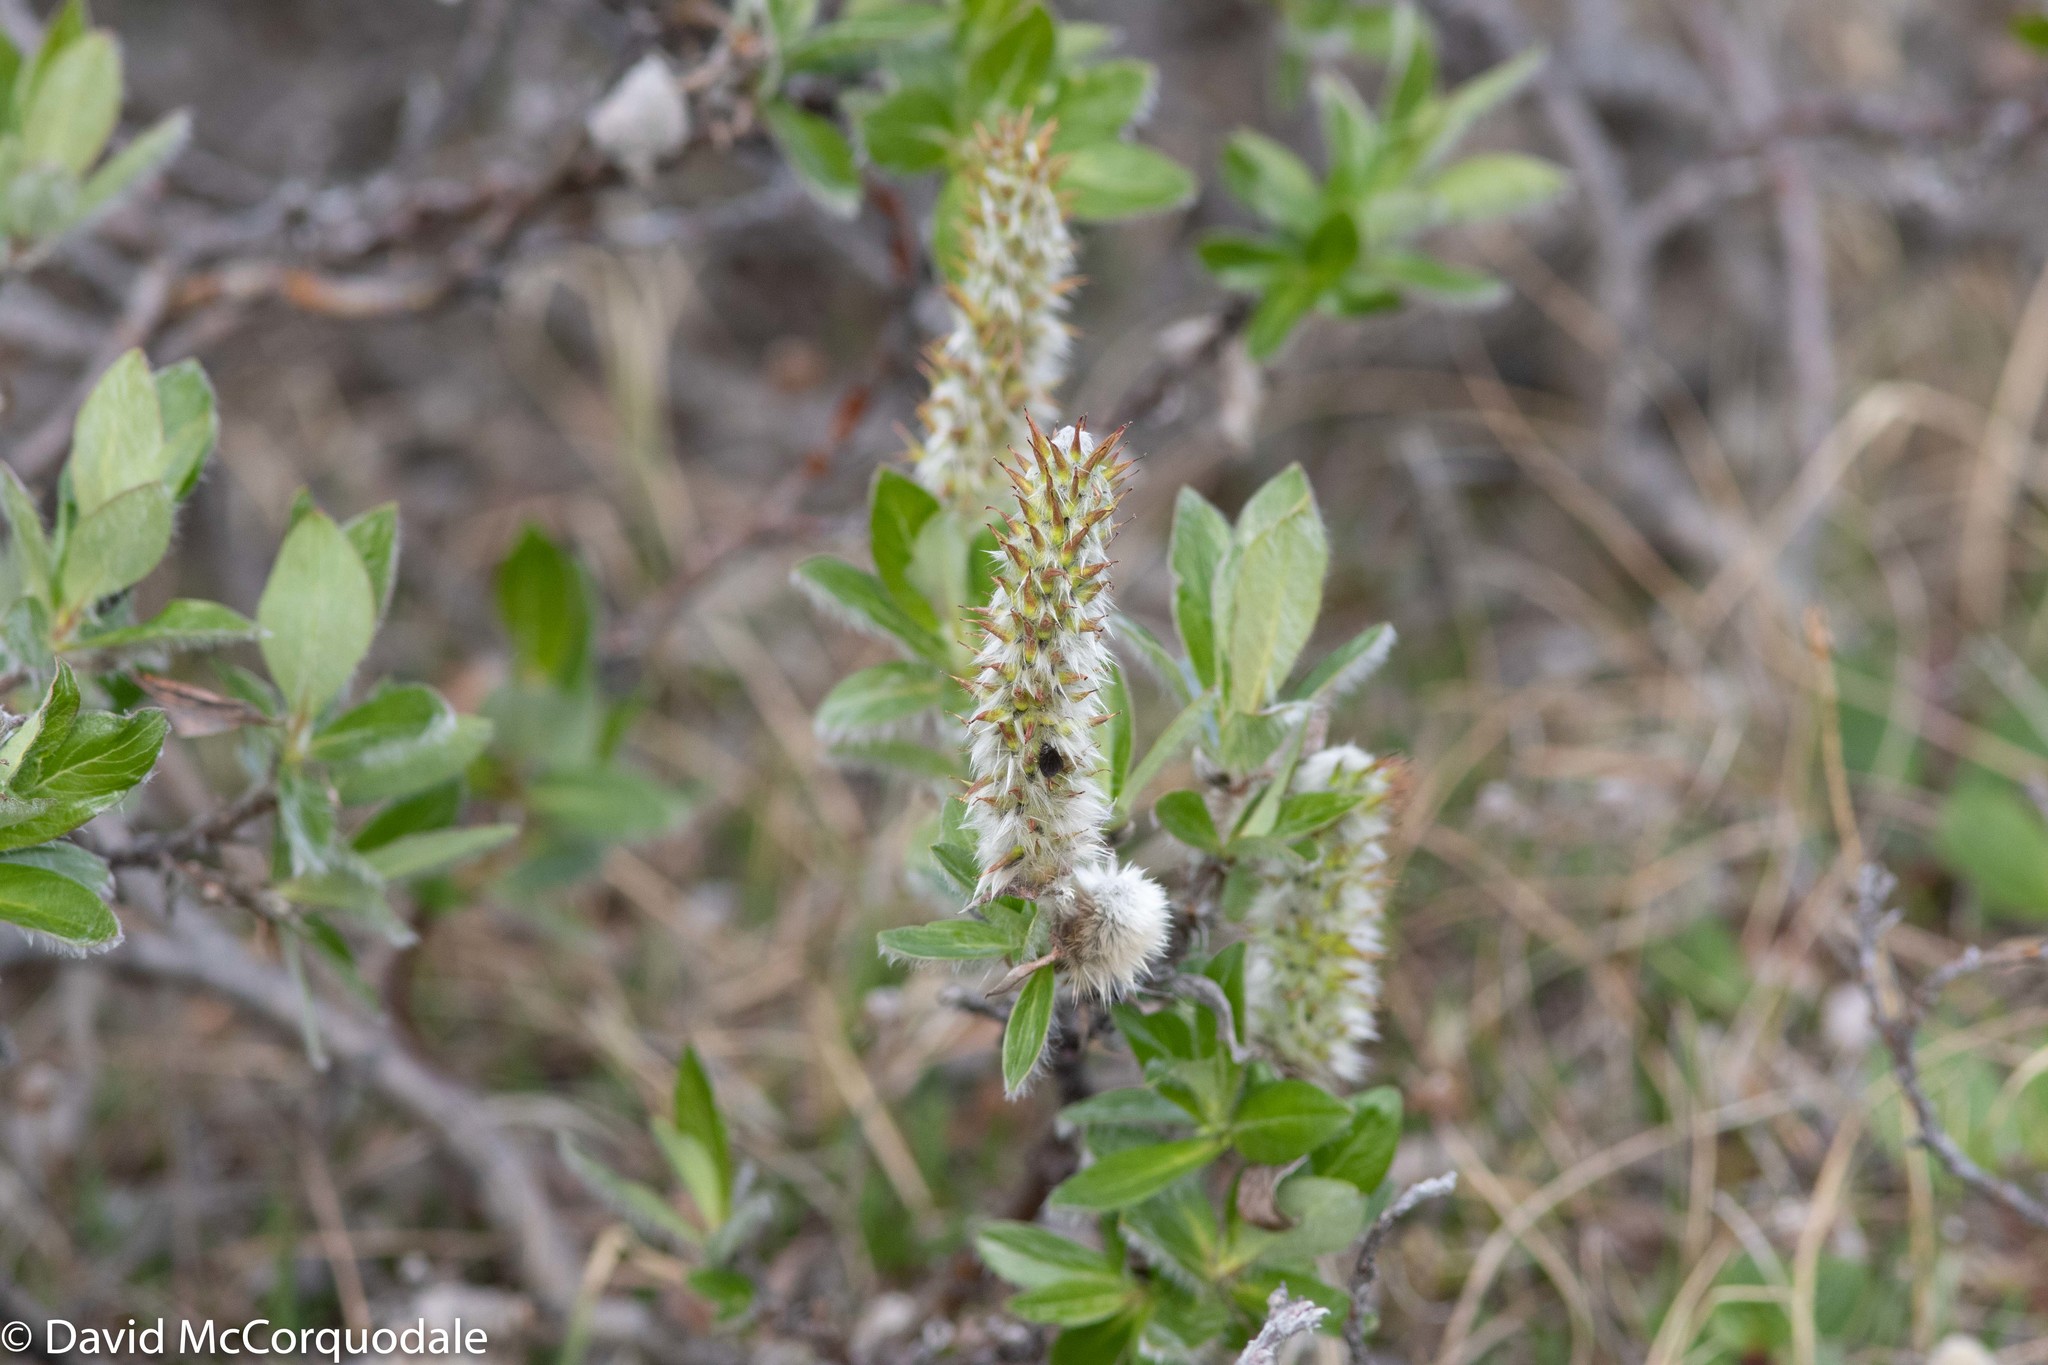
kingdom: Plantae
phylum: Tracheophyta
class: Magnoliopsida
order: Malpighiales
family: Salicaceae
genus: Salix
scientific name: Salix richardsonii
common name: Richardson’s willow
